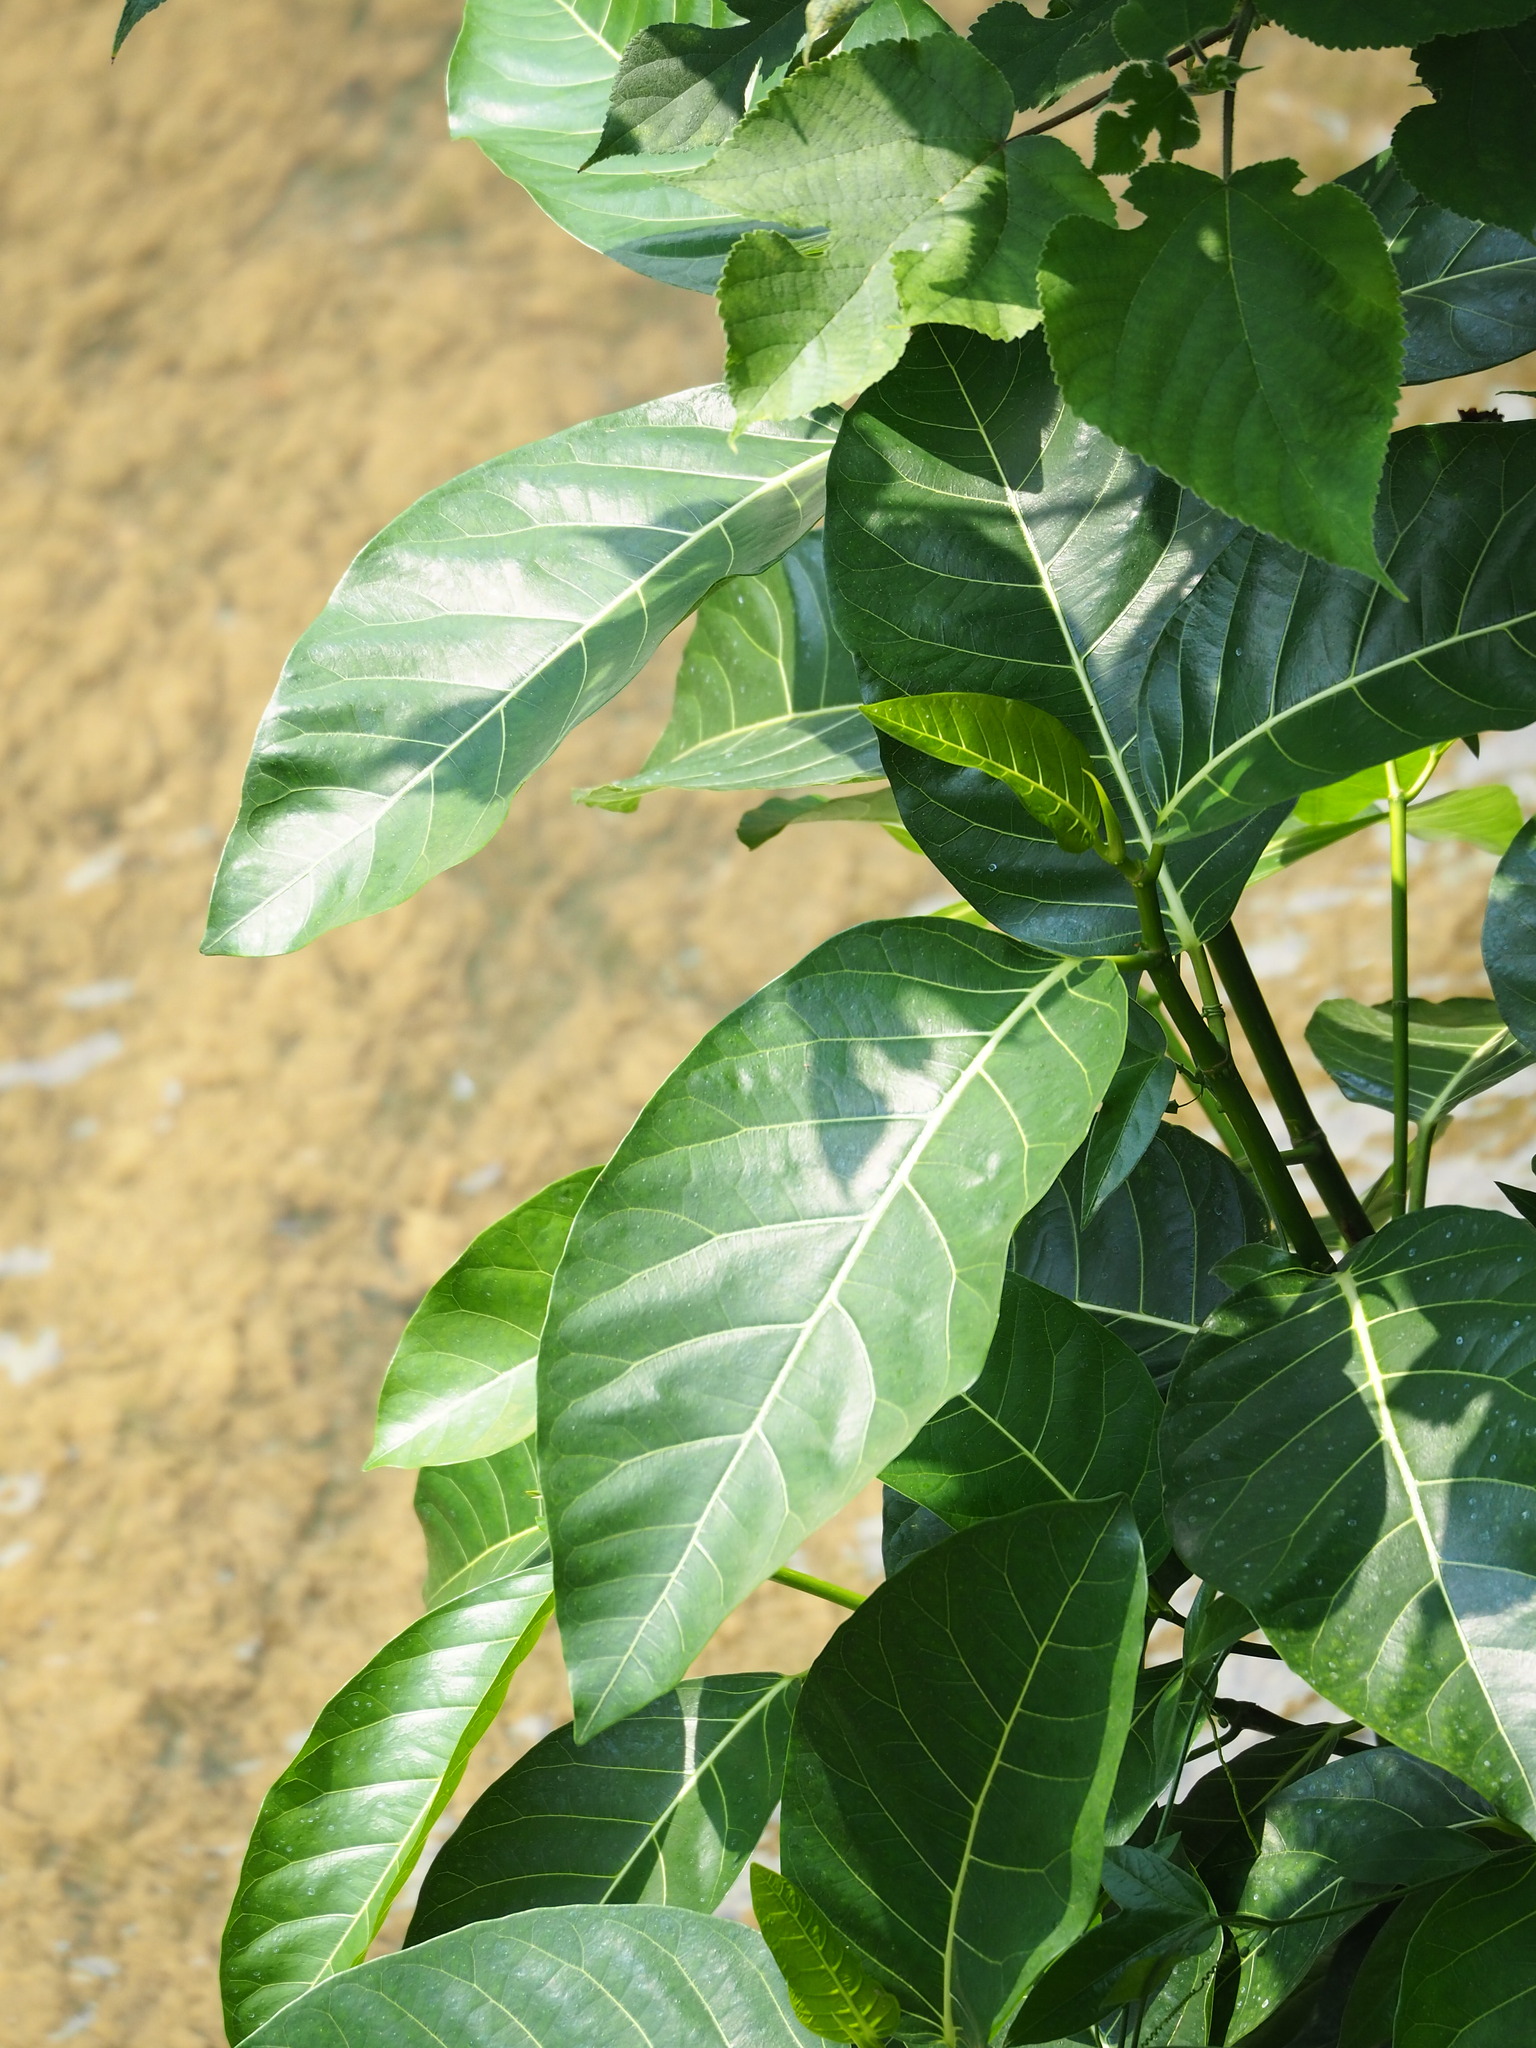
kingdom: Plantae
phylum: Tracheophyta
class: Magnoliopsida
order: Rosales
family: Moraceae
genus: Ficus
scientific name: Ficus septica
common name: Septic fig
